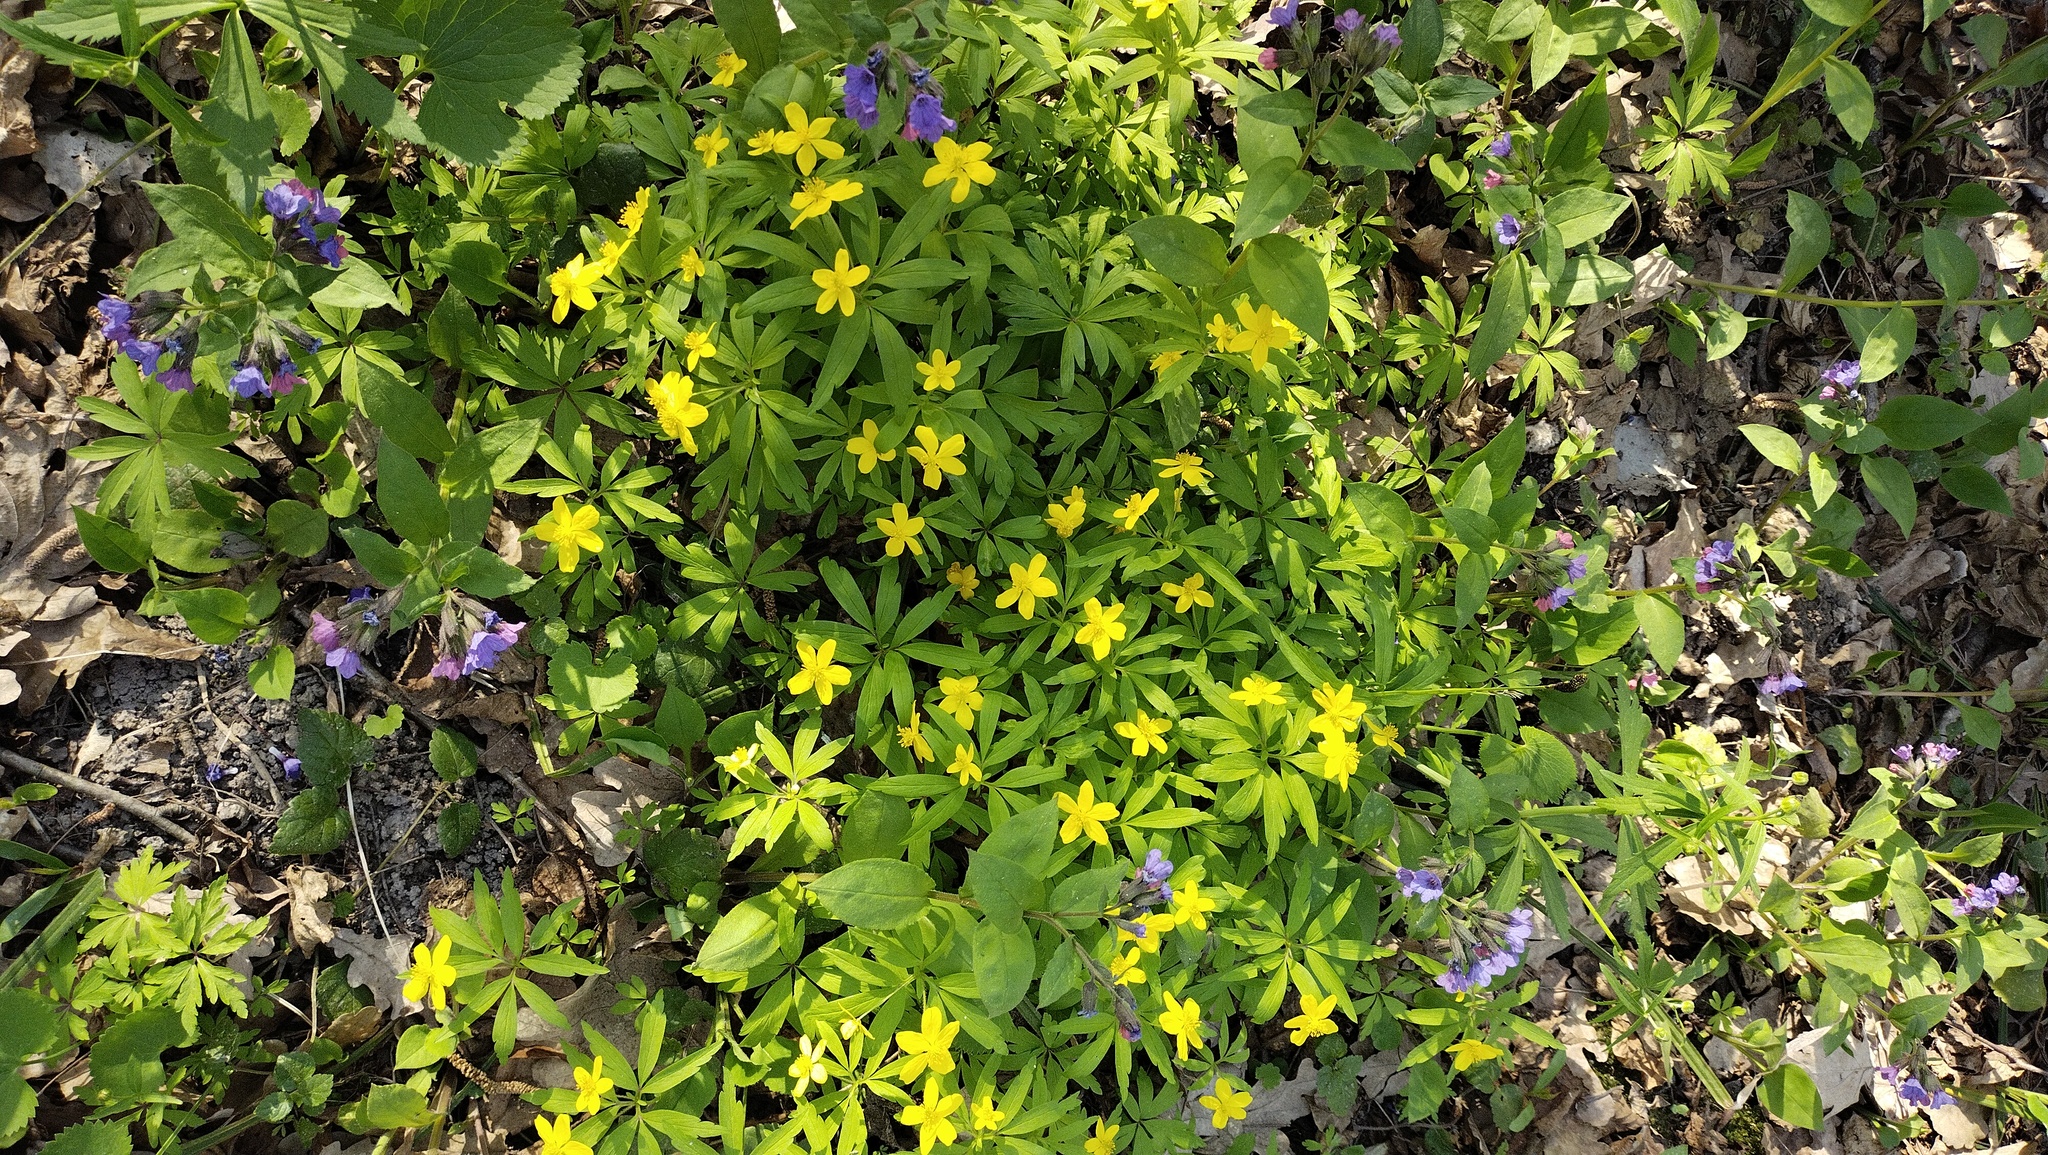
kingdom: Plantae
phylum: Tracheophyta
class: Magnoliopsida
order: Ranunculales
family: Ranunculaceae
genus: Anemone
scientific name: Anemone ranunculoides
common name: Yellow anemone
